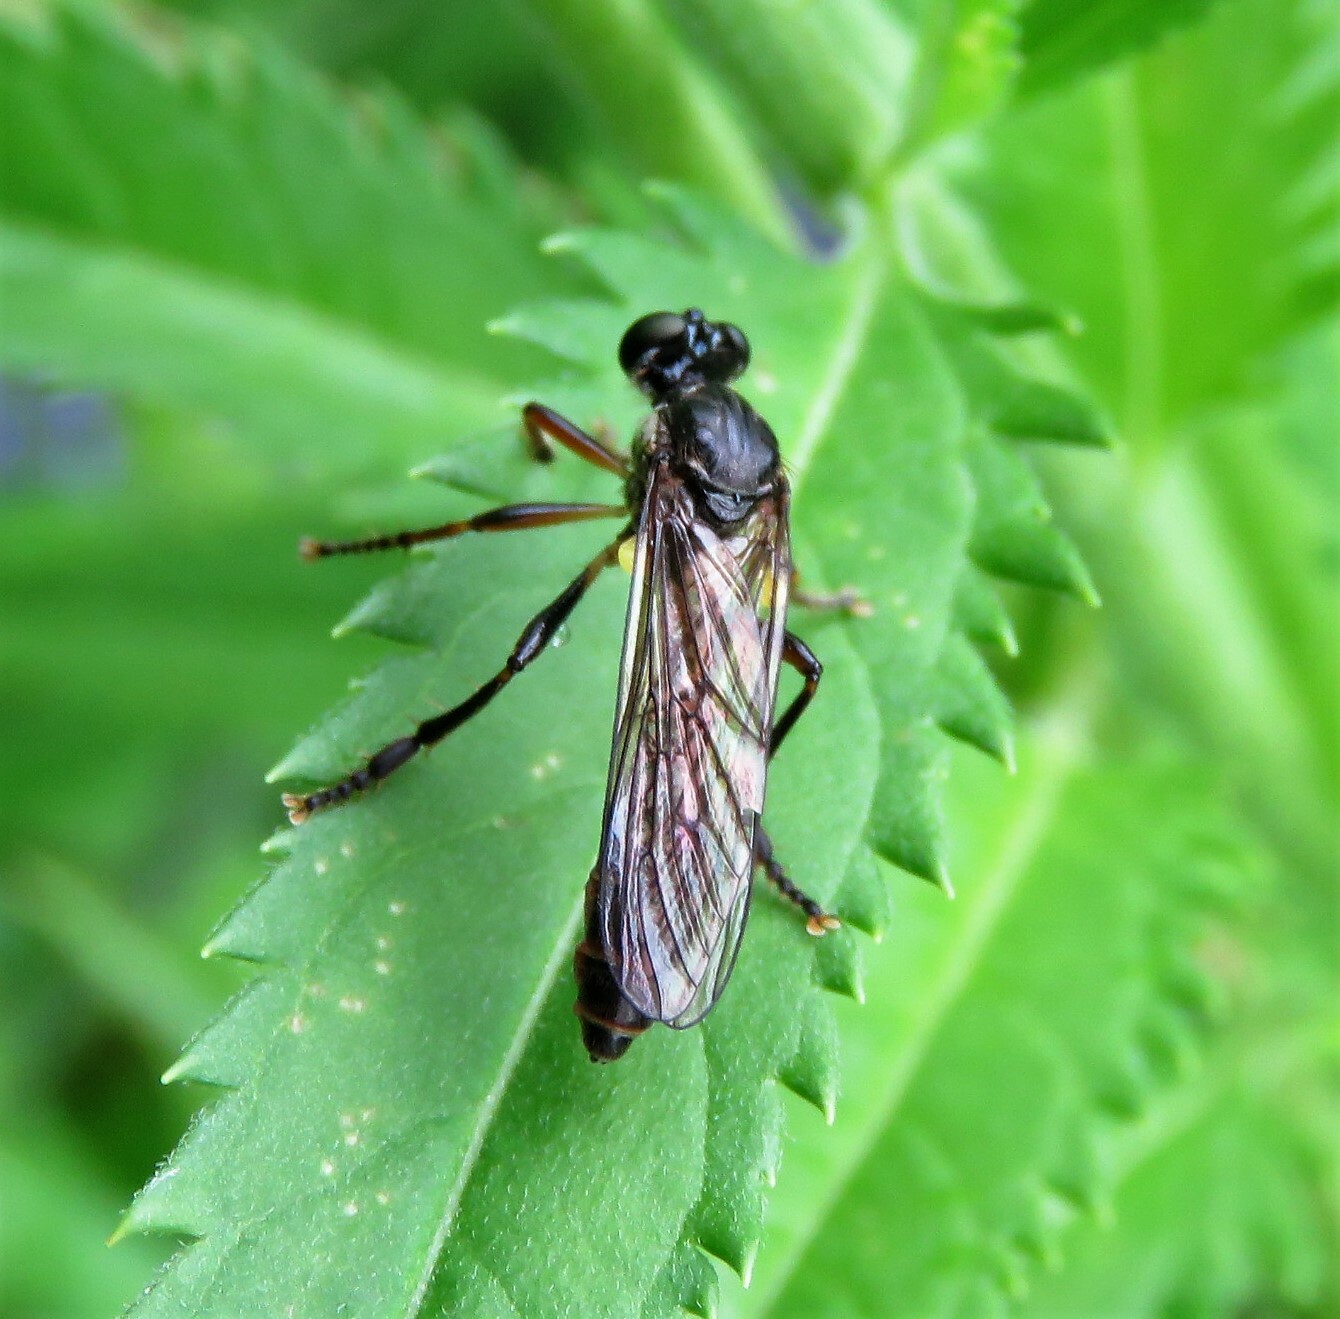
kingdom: Animalia
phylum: Arthropoda
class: Insecta
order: Diptera
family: Asilidae
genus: Dioctria
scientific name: Dioctria hyalipennis
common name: Stripe-legged robberfly
